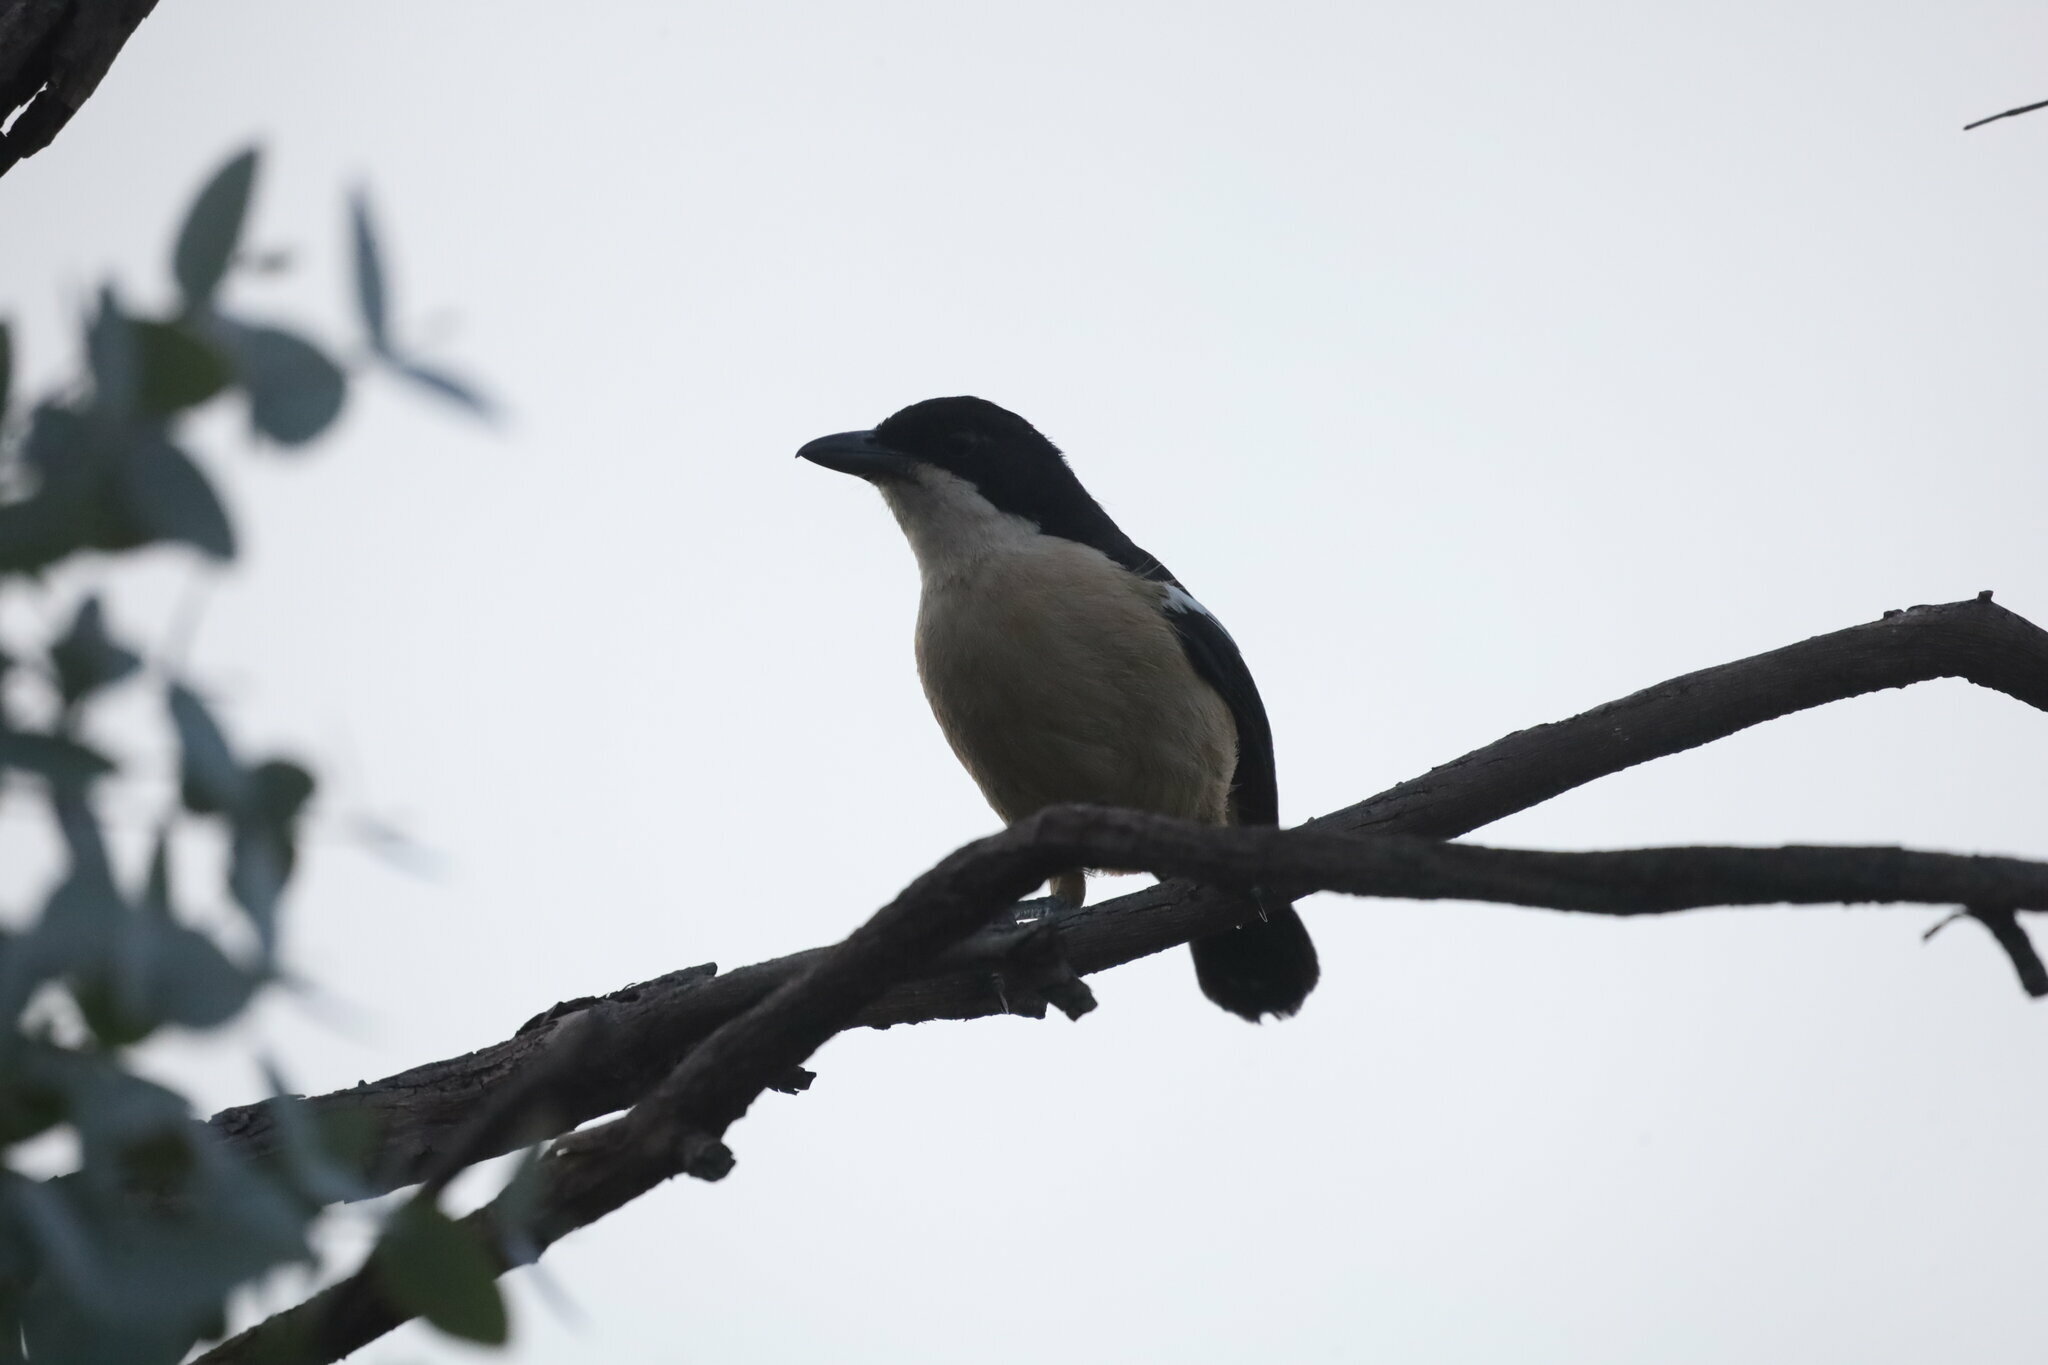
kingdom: Animalia
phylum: Chordata
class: Aves
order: Passeriformes
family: Malaconotidae
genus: Laniarius
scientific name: Laniarius ferrugineus
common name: Southern boubou
